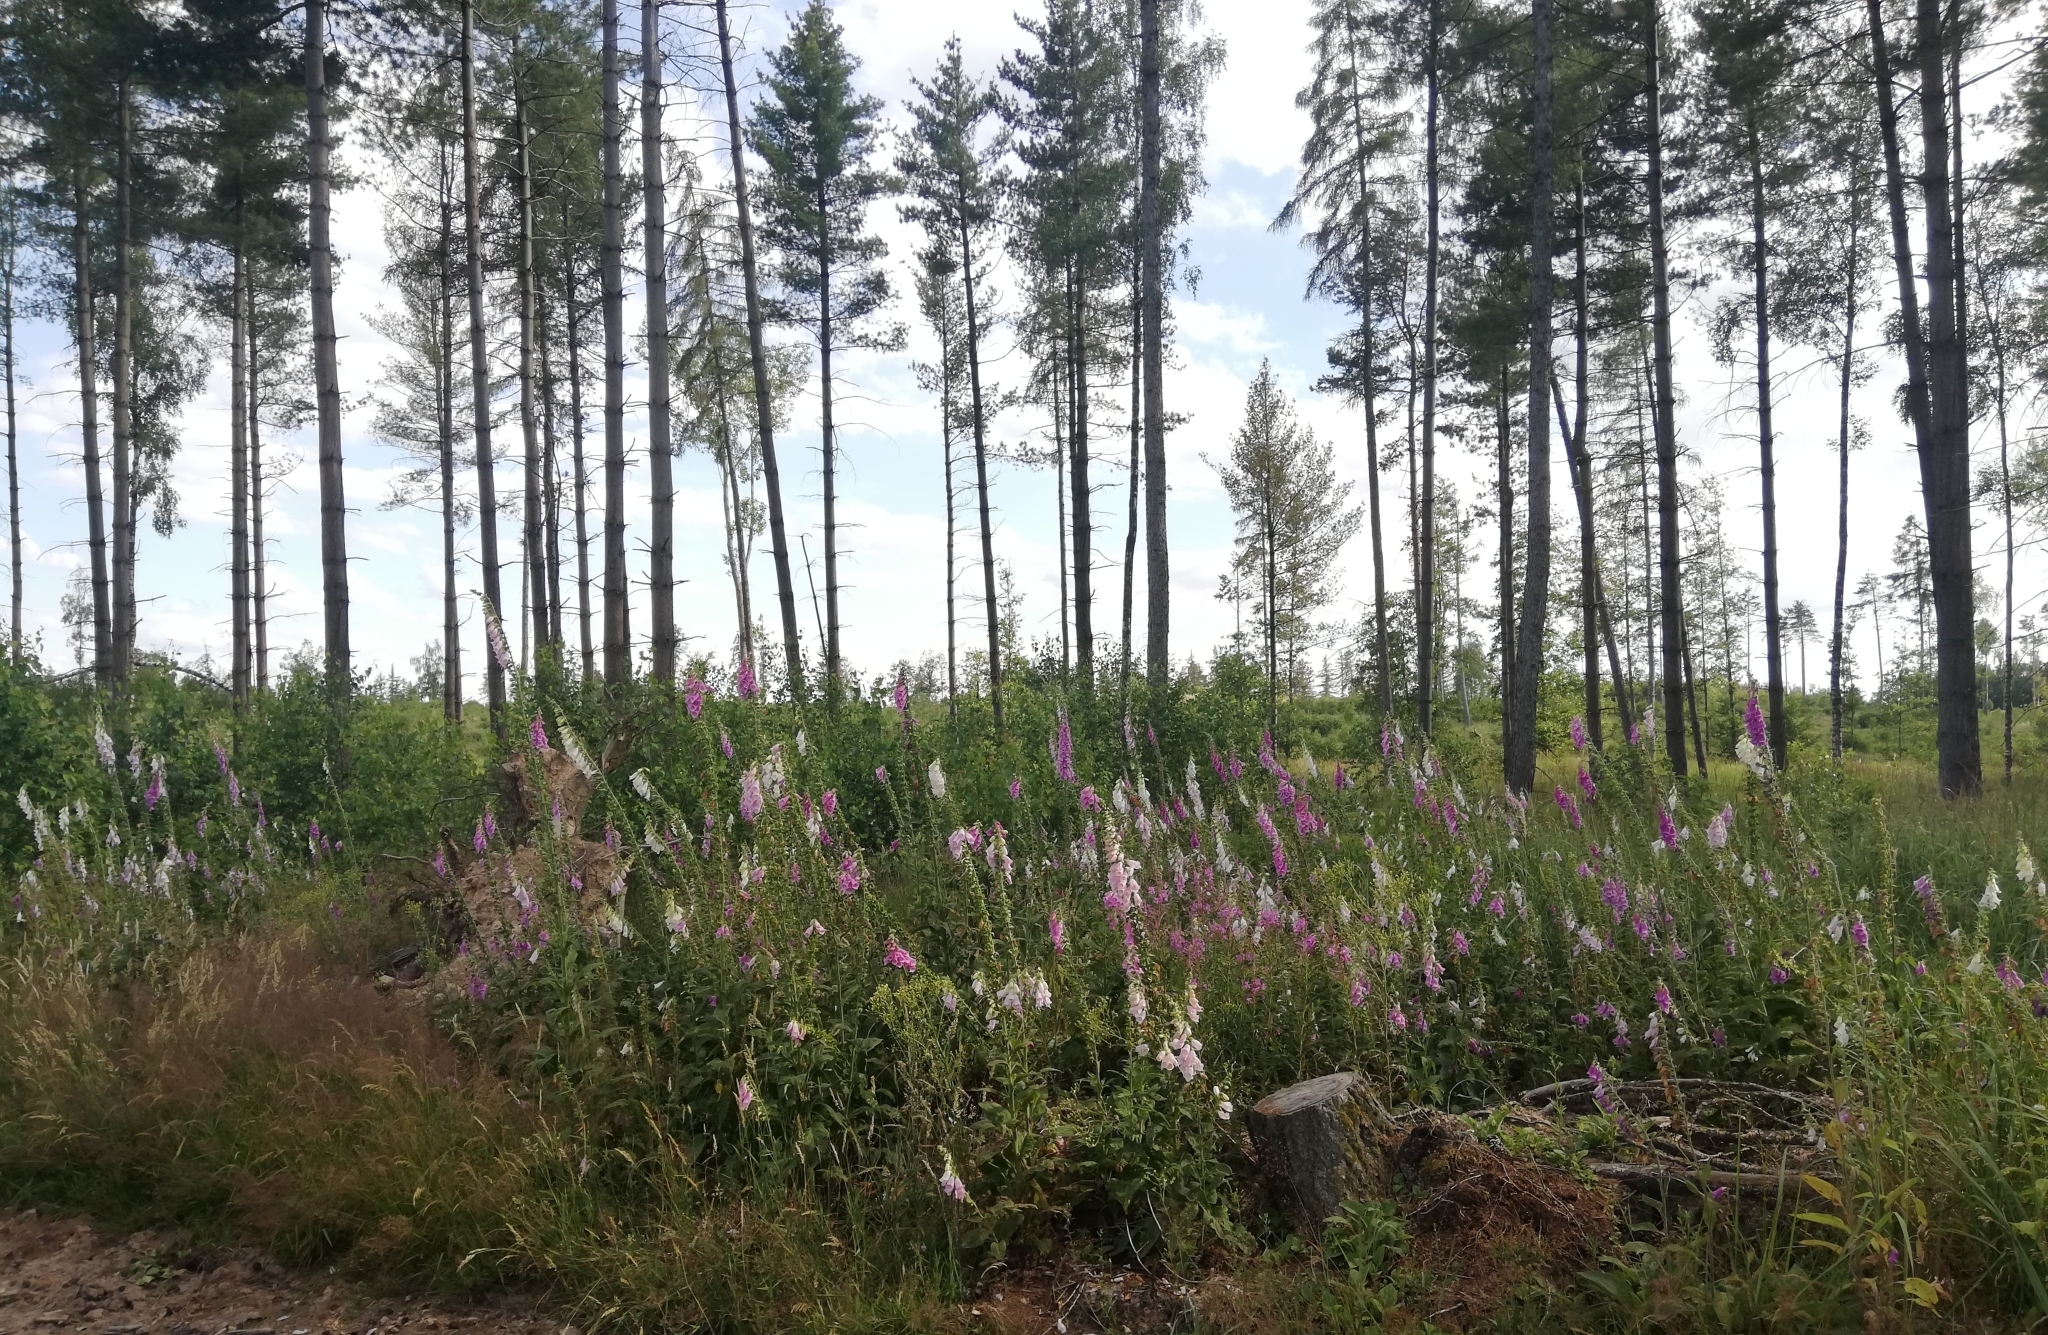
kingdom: Plantae
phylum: Tracheophyta
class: Magnoliopsida
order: Lamiales
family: Plantaginaceae
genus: Digitalis
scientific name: Digitalis purpurea
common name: Foxglove
